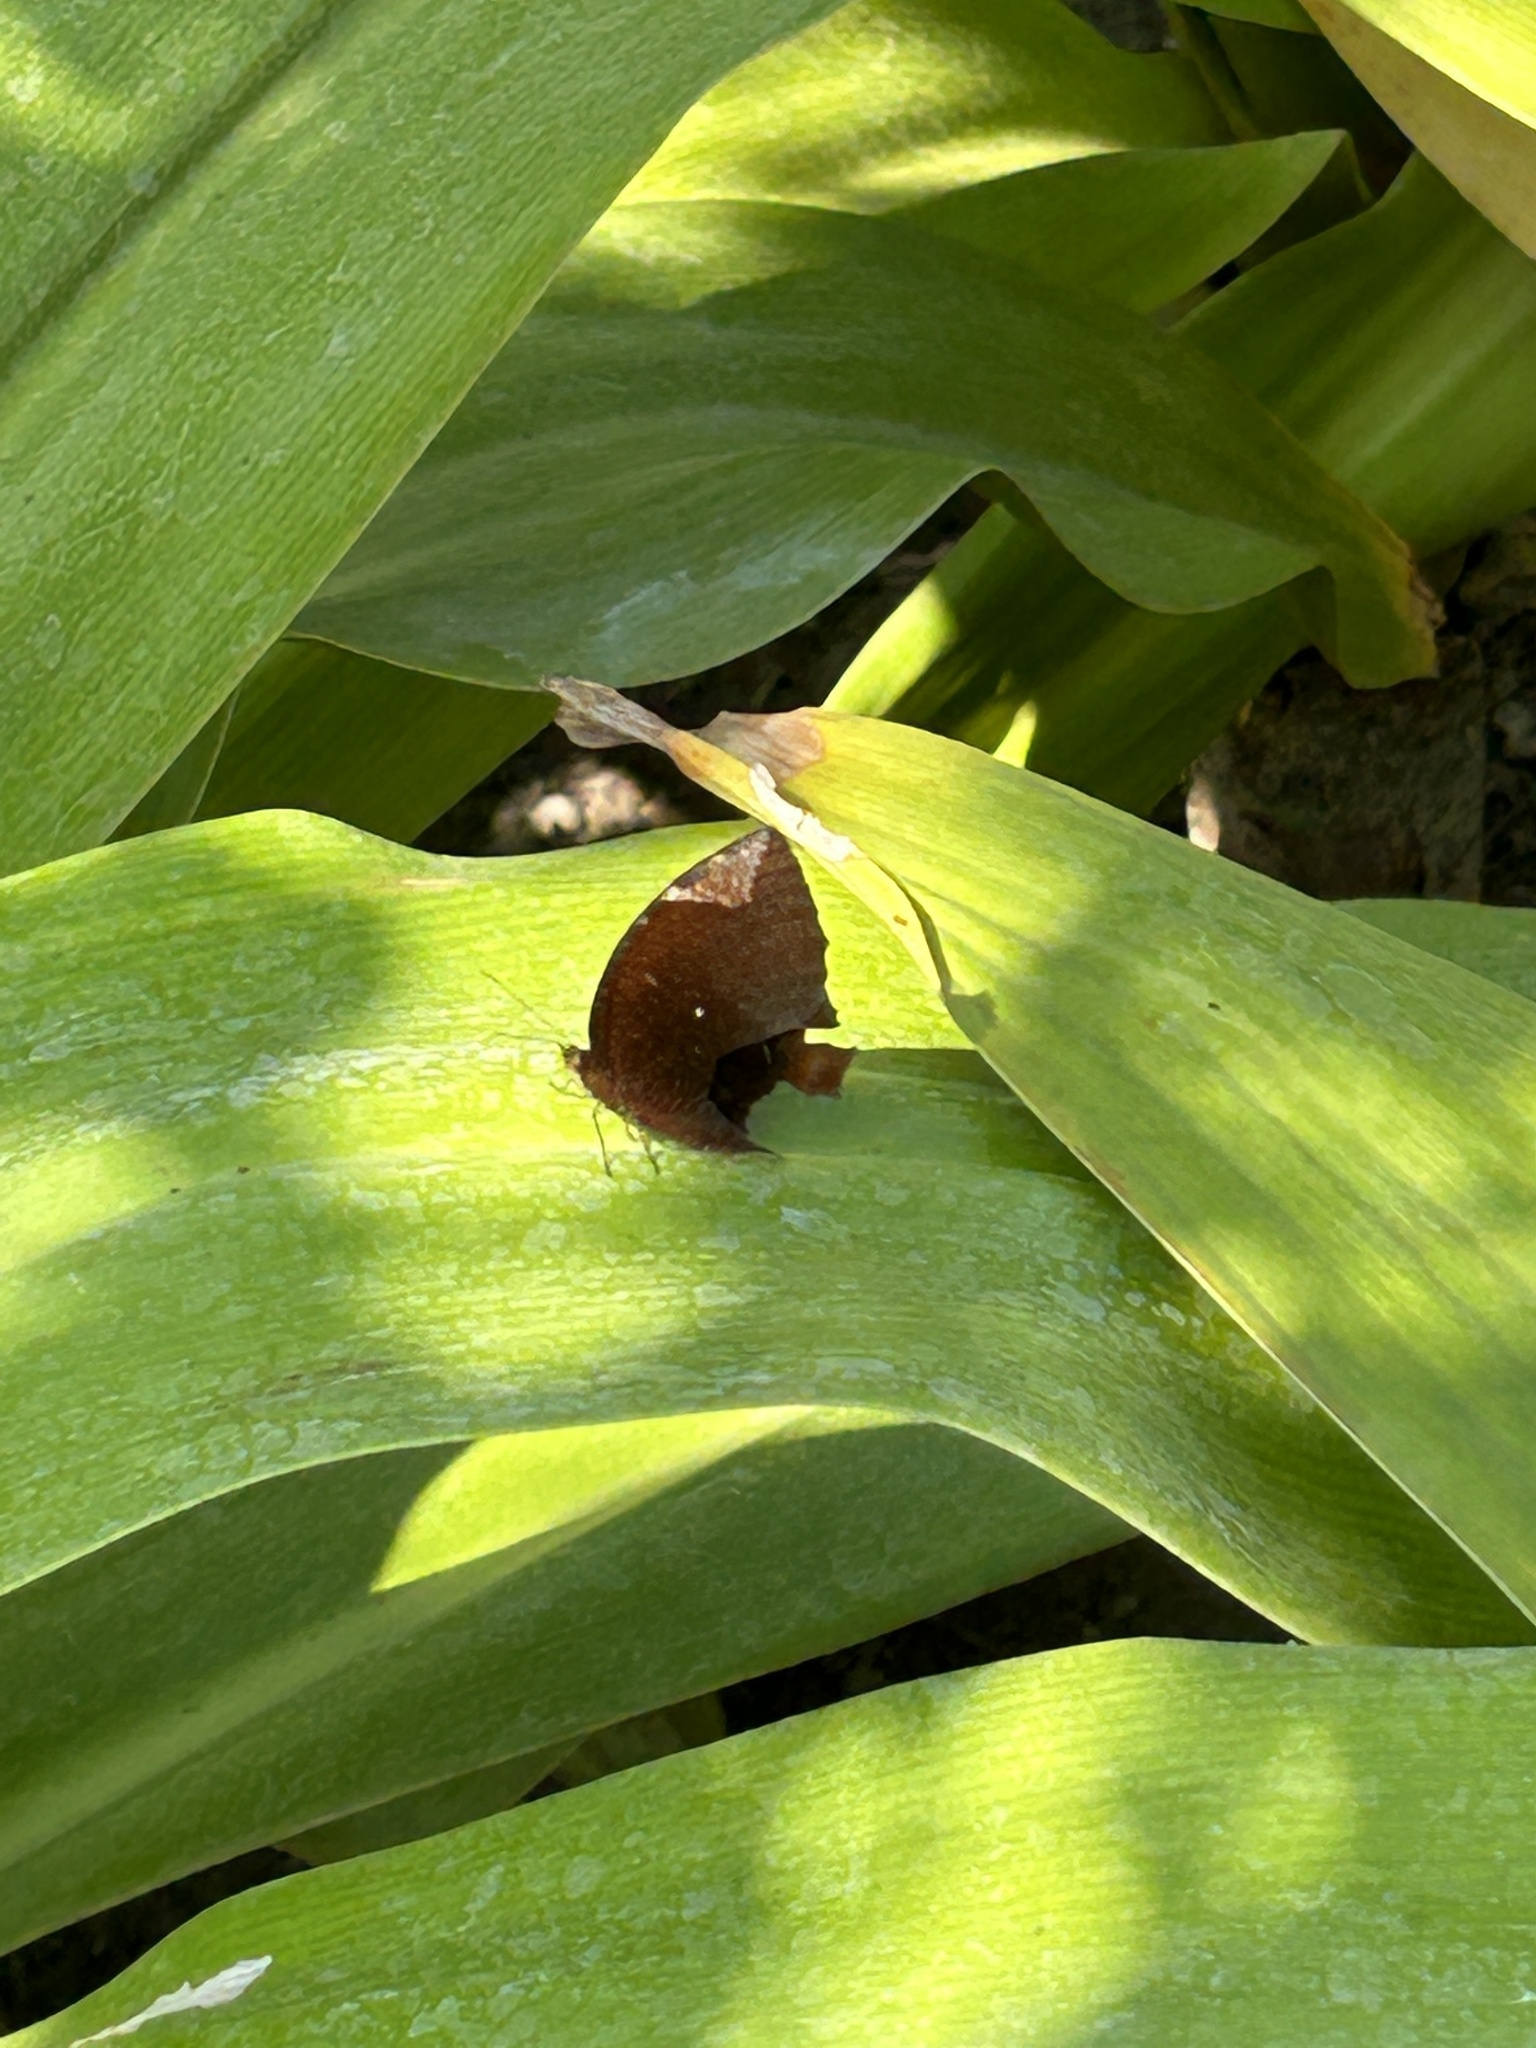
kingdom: Animalia
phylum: Arthropoda
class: Insecta
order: Lepidoptera
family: Nymphalidae
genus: Elymnias
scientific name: Elymnias hypermnestra
